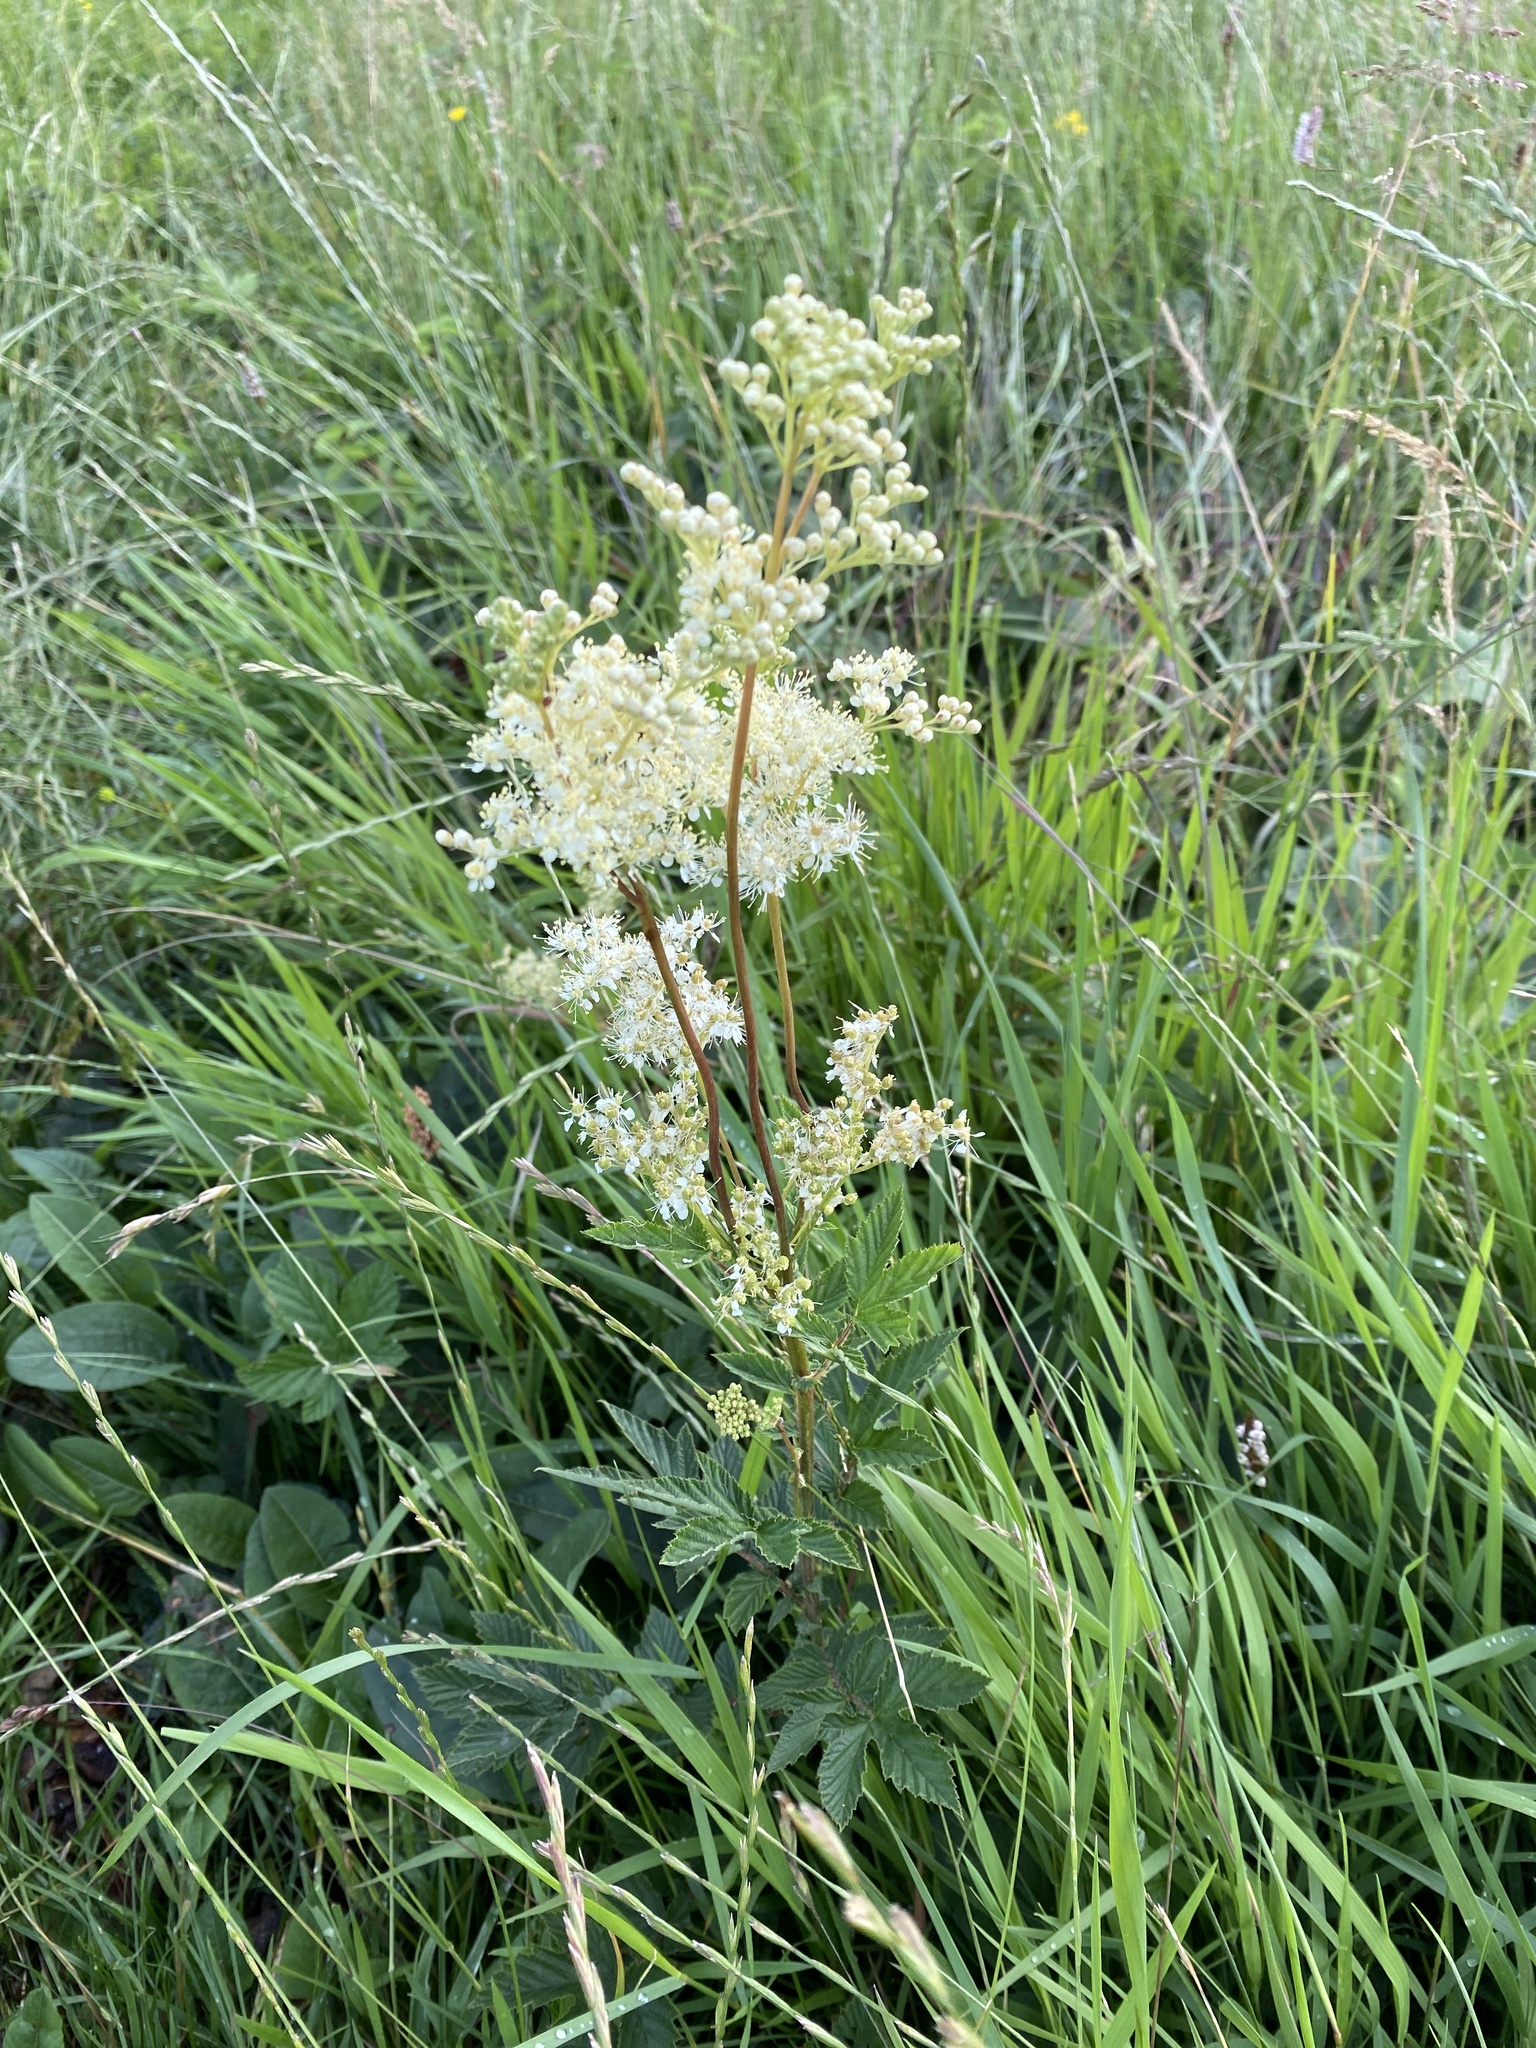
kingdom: Plantae
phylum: Tracheophyta
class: Magnoliopsida
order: Rosales
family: Rosaceae
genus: Filipendula
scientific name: Filipendula ulmaria
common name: Meadowsweet
